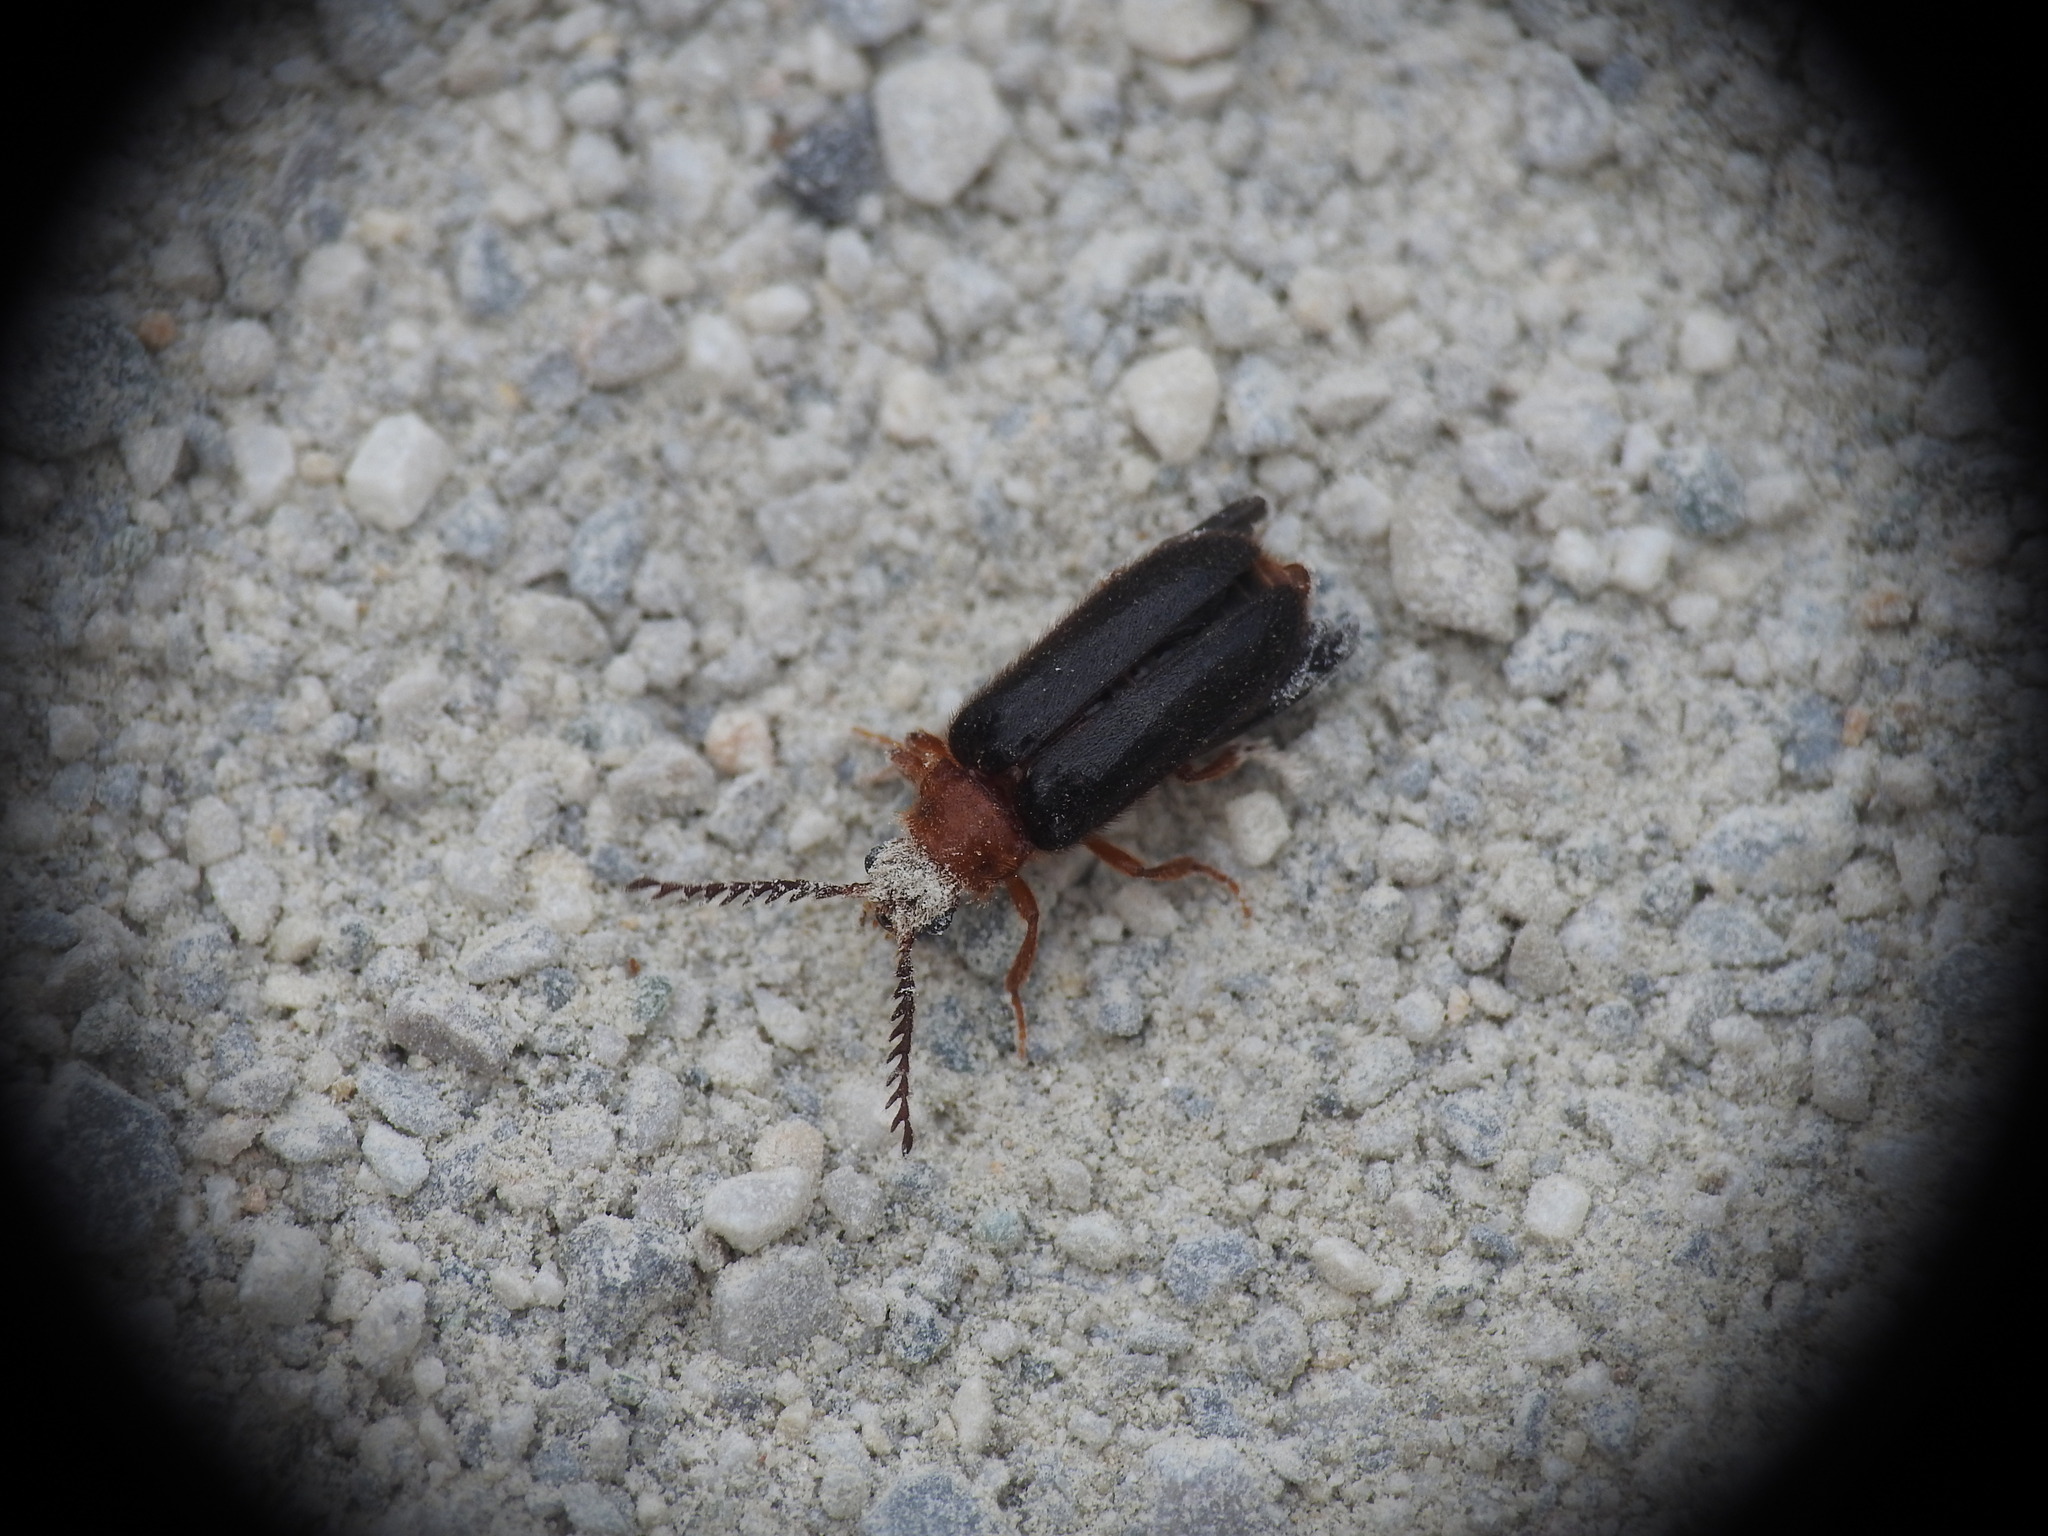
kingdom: Animalia
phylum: Arthropoda
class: Insecta
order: Coleoptera
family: Drilidae
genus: Drilus
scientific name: Drilus creticus
